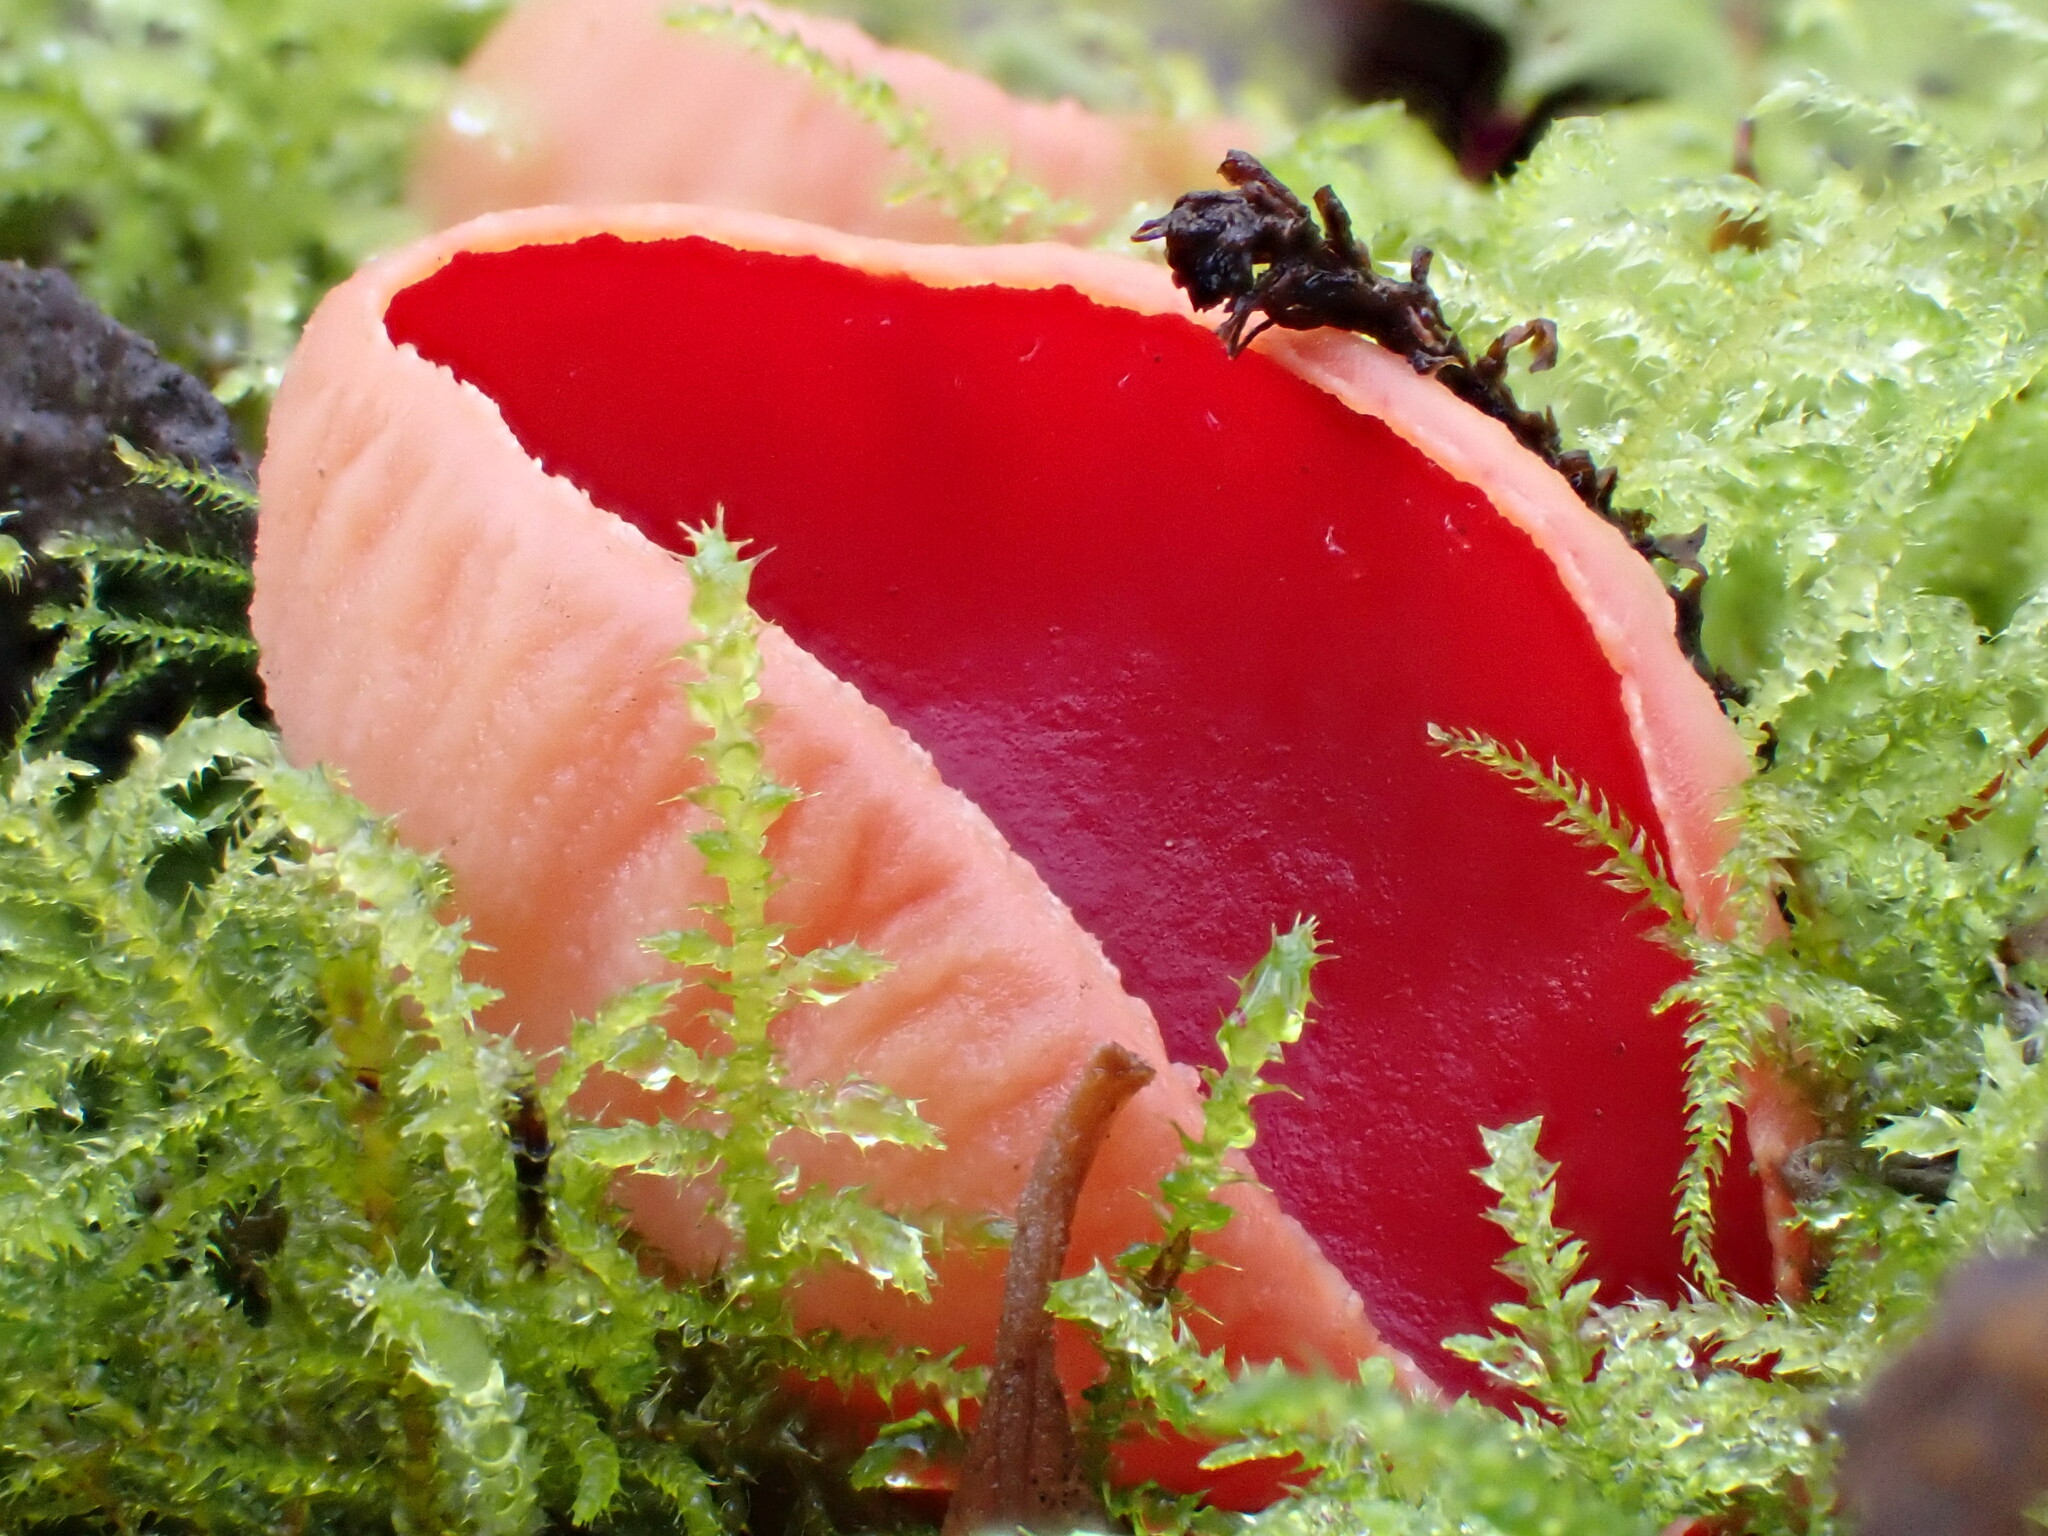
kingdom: Fungi
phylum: Ascomycota
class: Pezizomycetes
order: Pezizales
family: Sarcoscyphaceae
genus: Sarcoscypha
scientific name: Sarcoscypha
